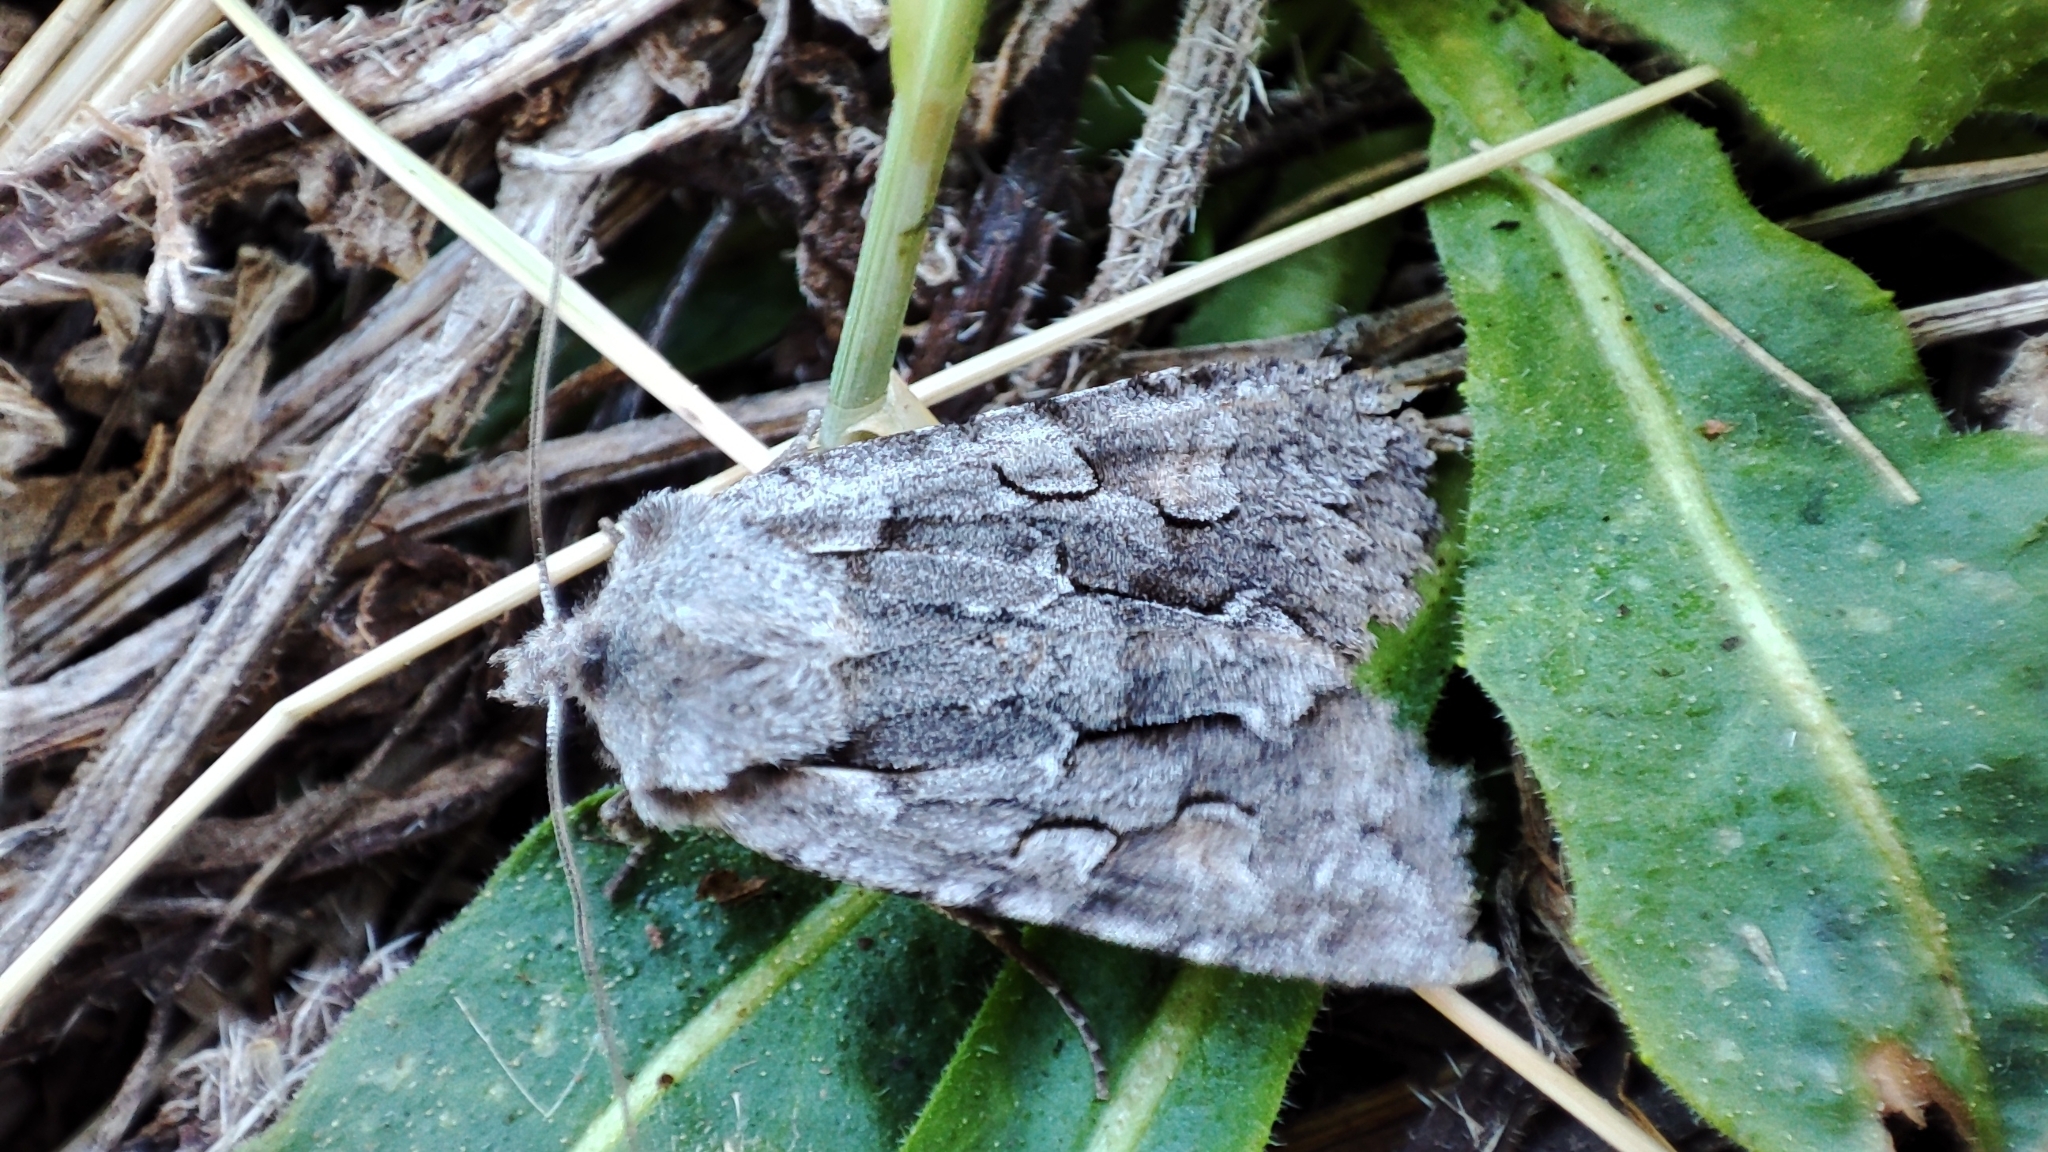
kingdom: Animalia
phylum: Arthropoda
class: Insecta
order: Lepidoptera
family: Noctuidae
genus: Lithophane
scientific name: Lithophane lamda
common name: Nonconformist
